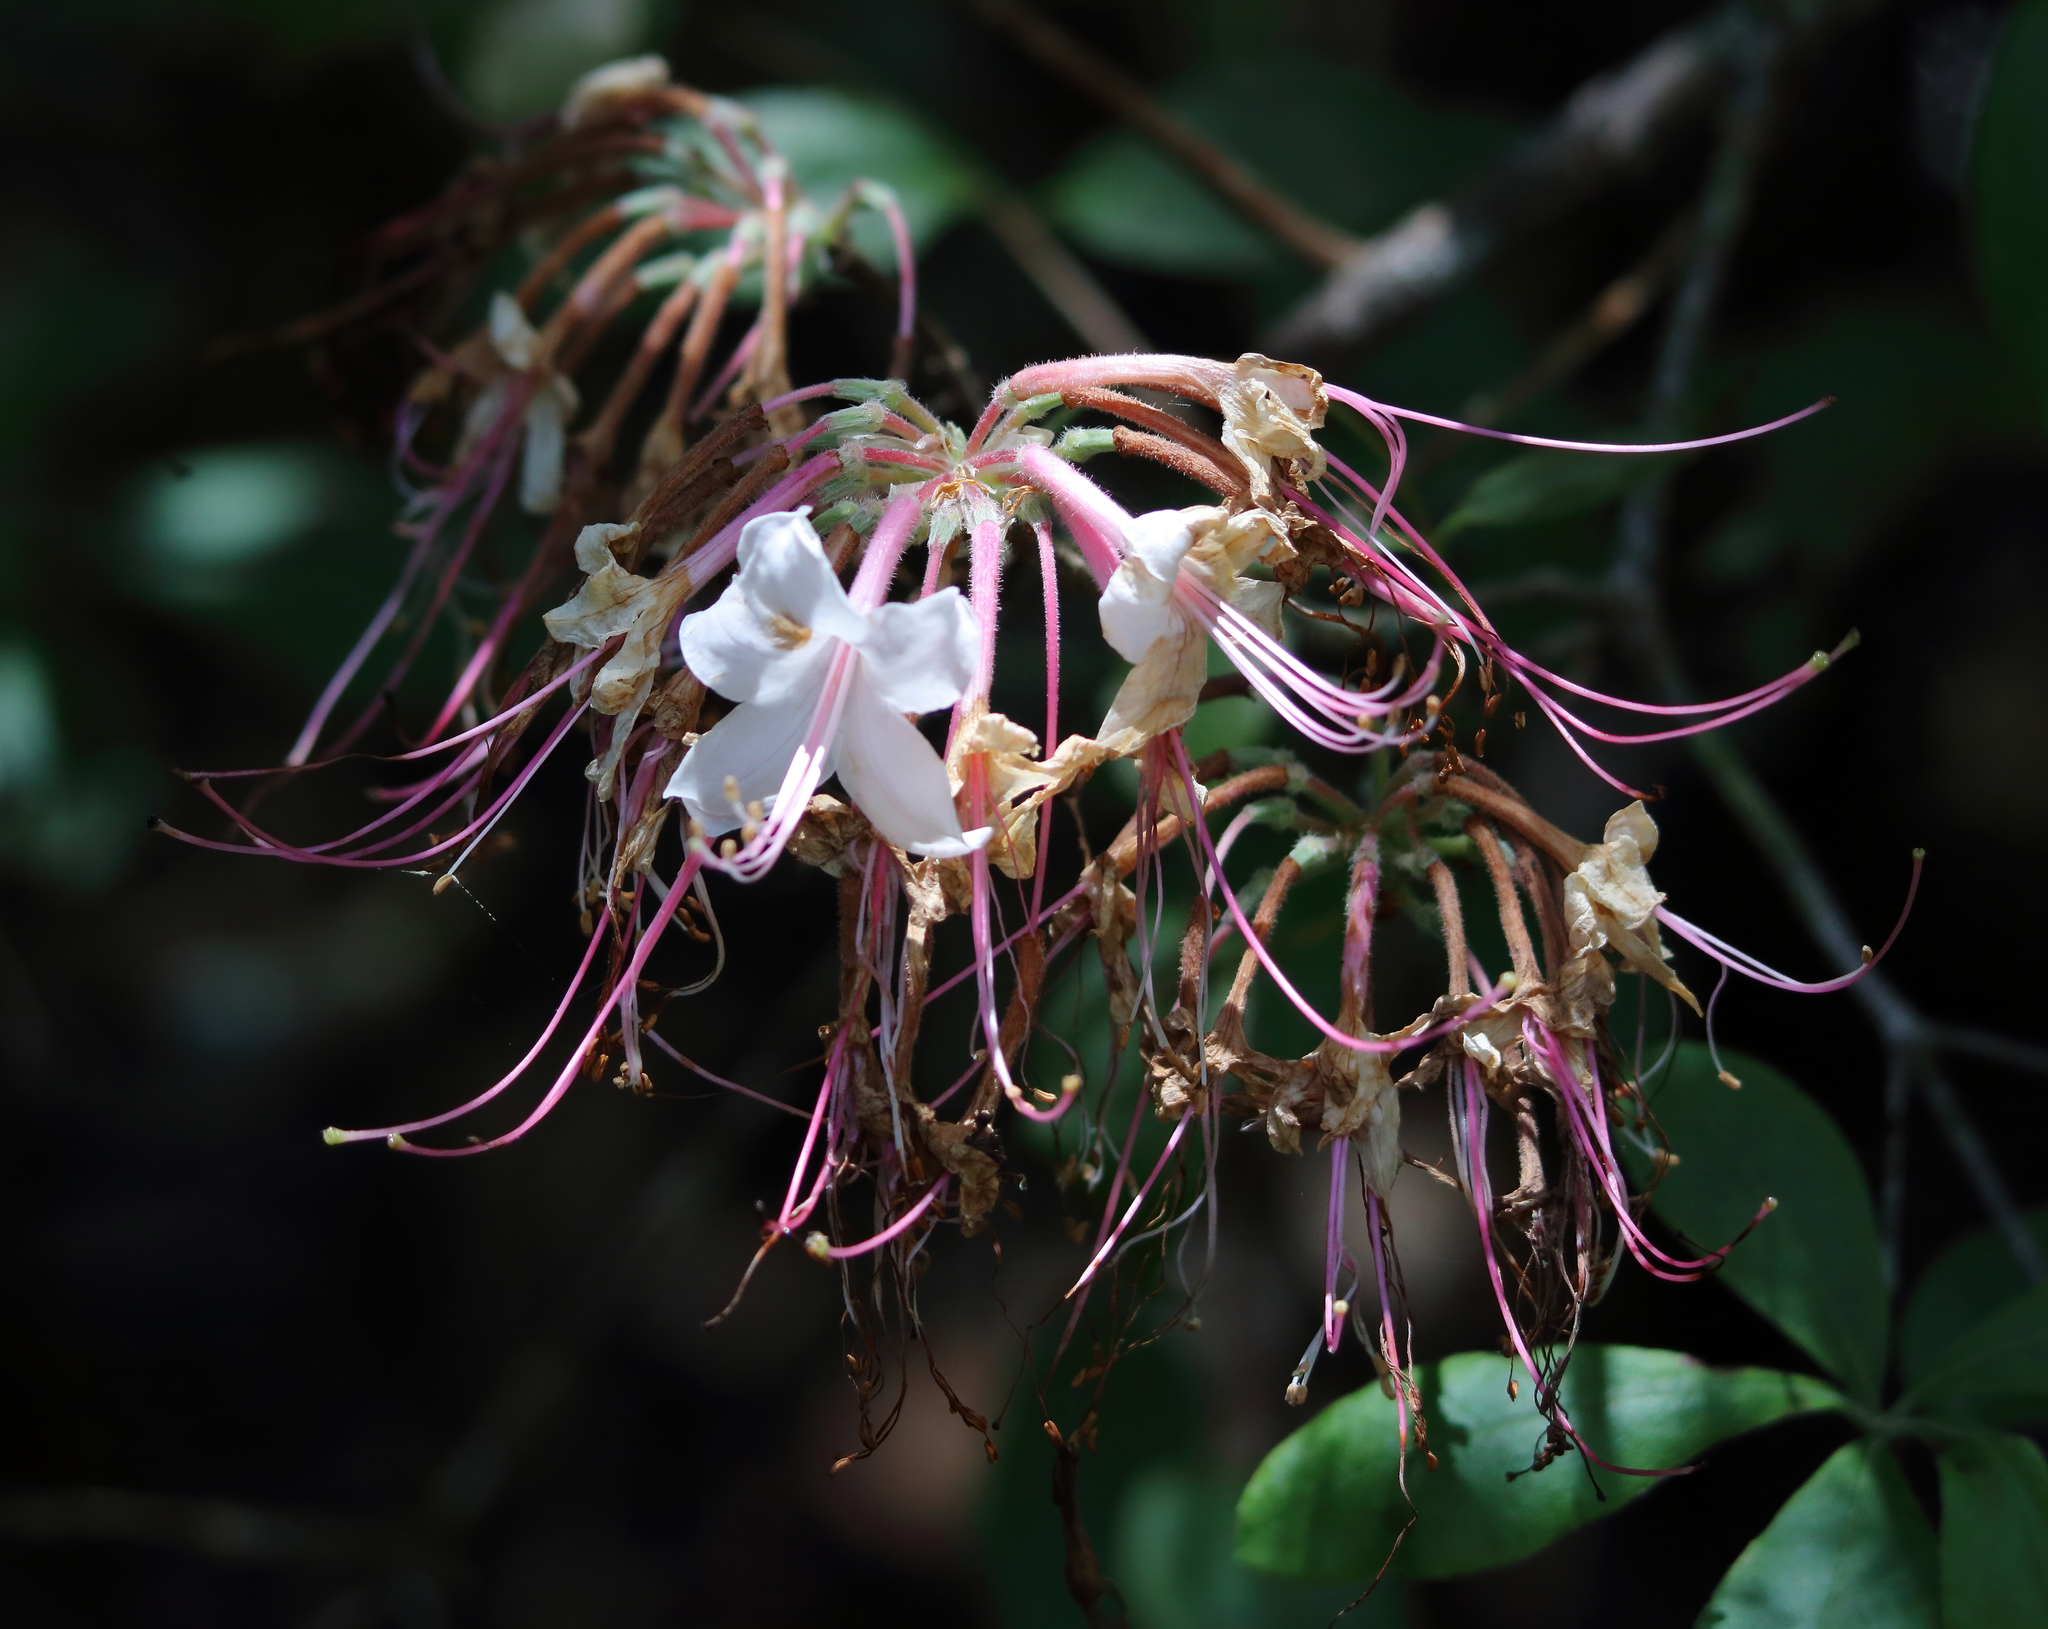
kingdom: Plantae
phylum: Tracheophyta
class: Magnoliopsida
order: Ericales
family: Ericaceae
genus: Rhododendron
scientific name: Rhododendron canescens
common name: Mountain azalea
